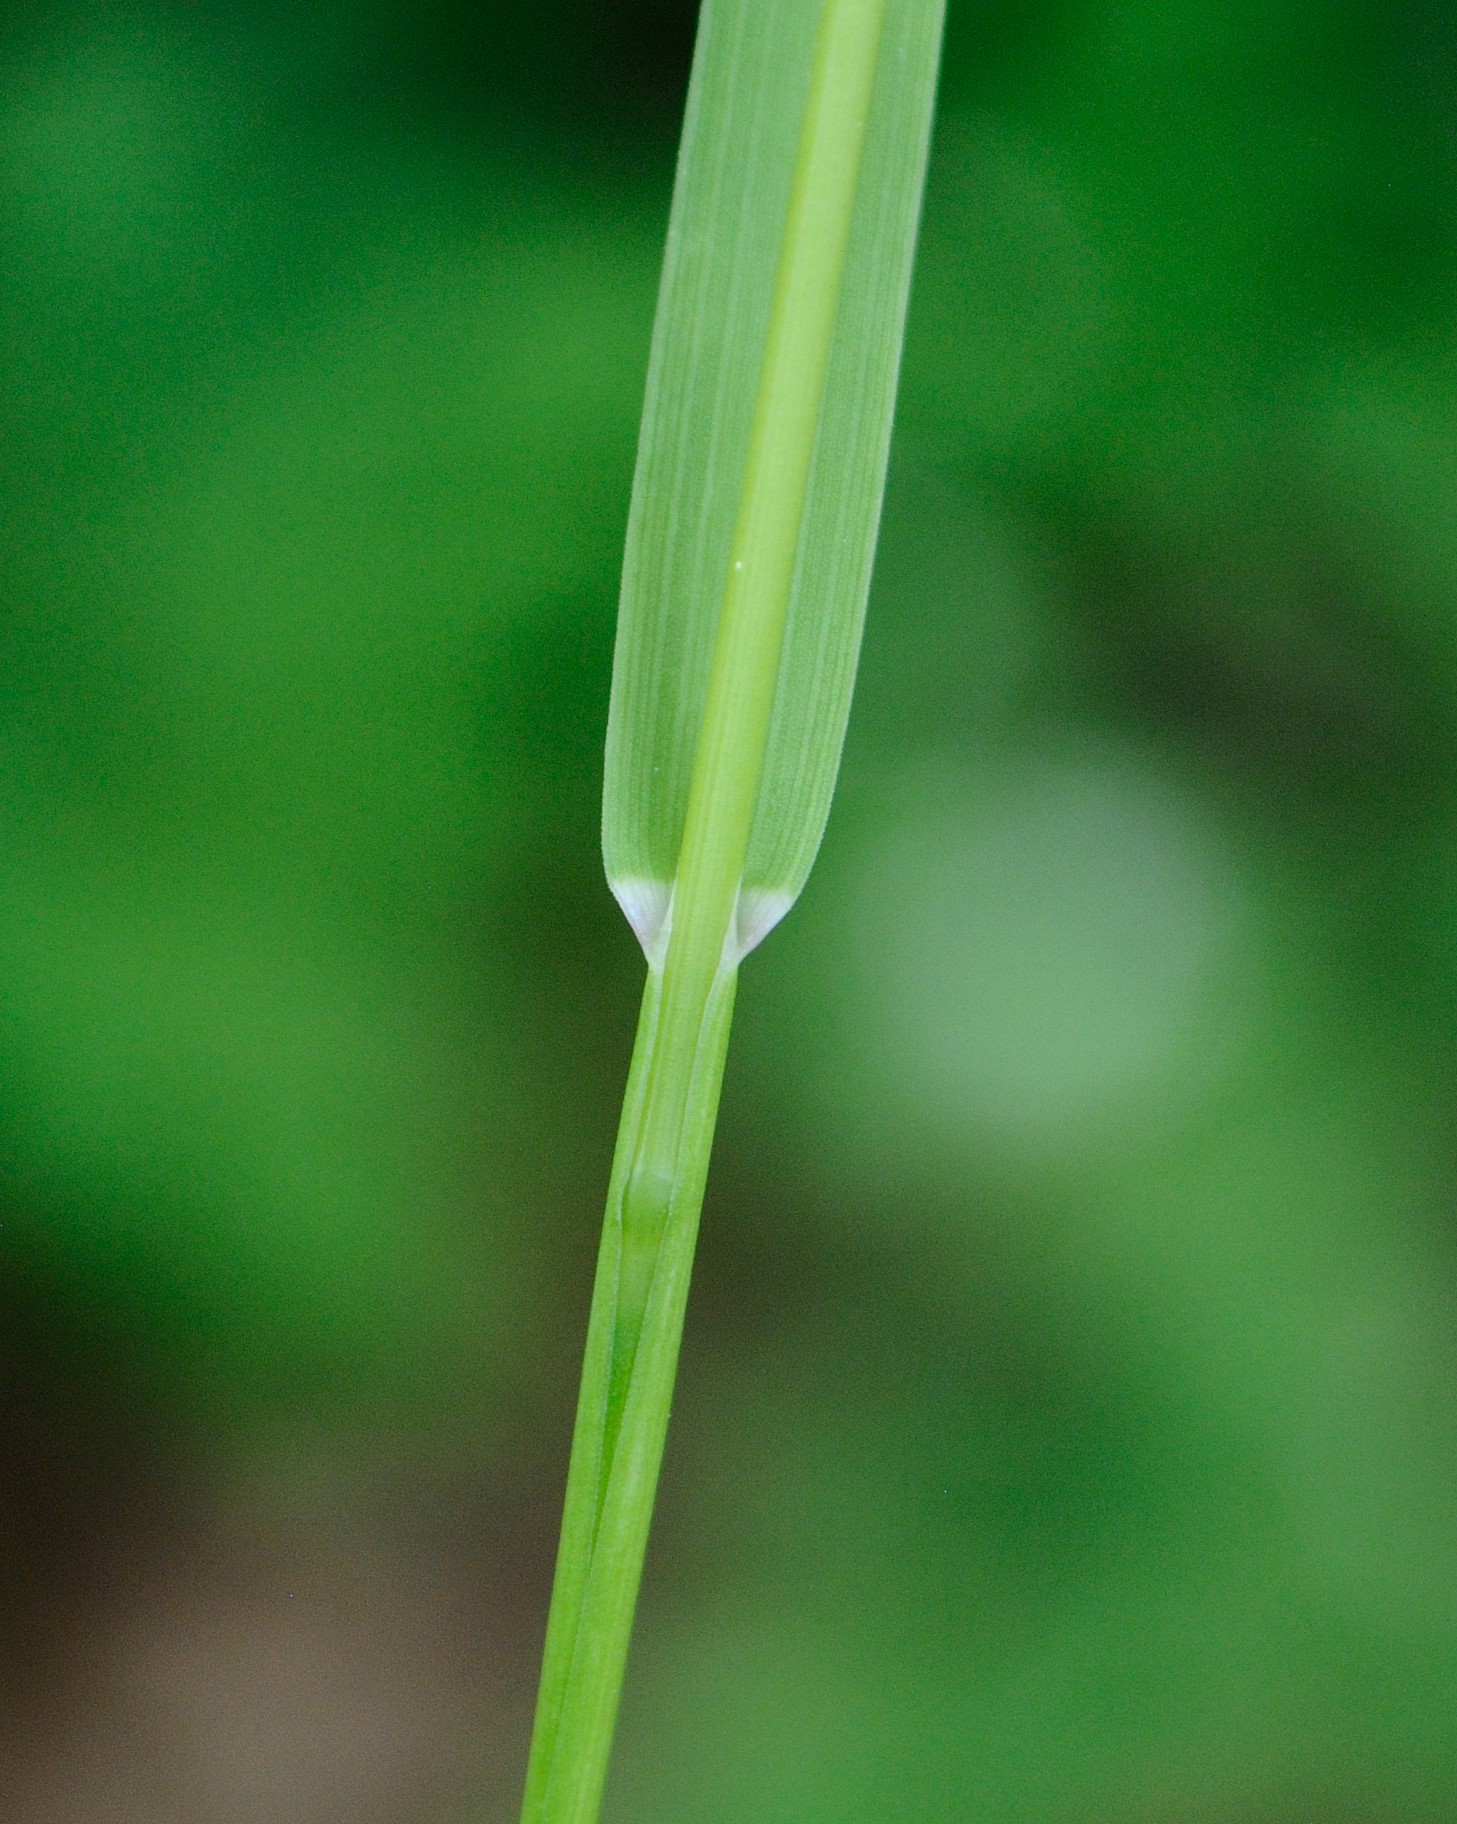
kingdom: Plantae
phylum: Tracheophyta
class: Liliopsida
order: Poales
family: Poaceae
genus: Poa
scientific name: Poa alsodes
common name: Grove bluegrass
